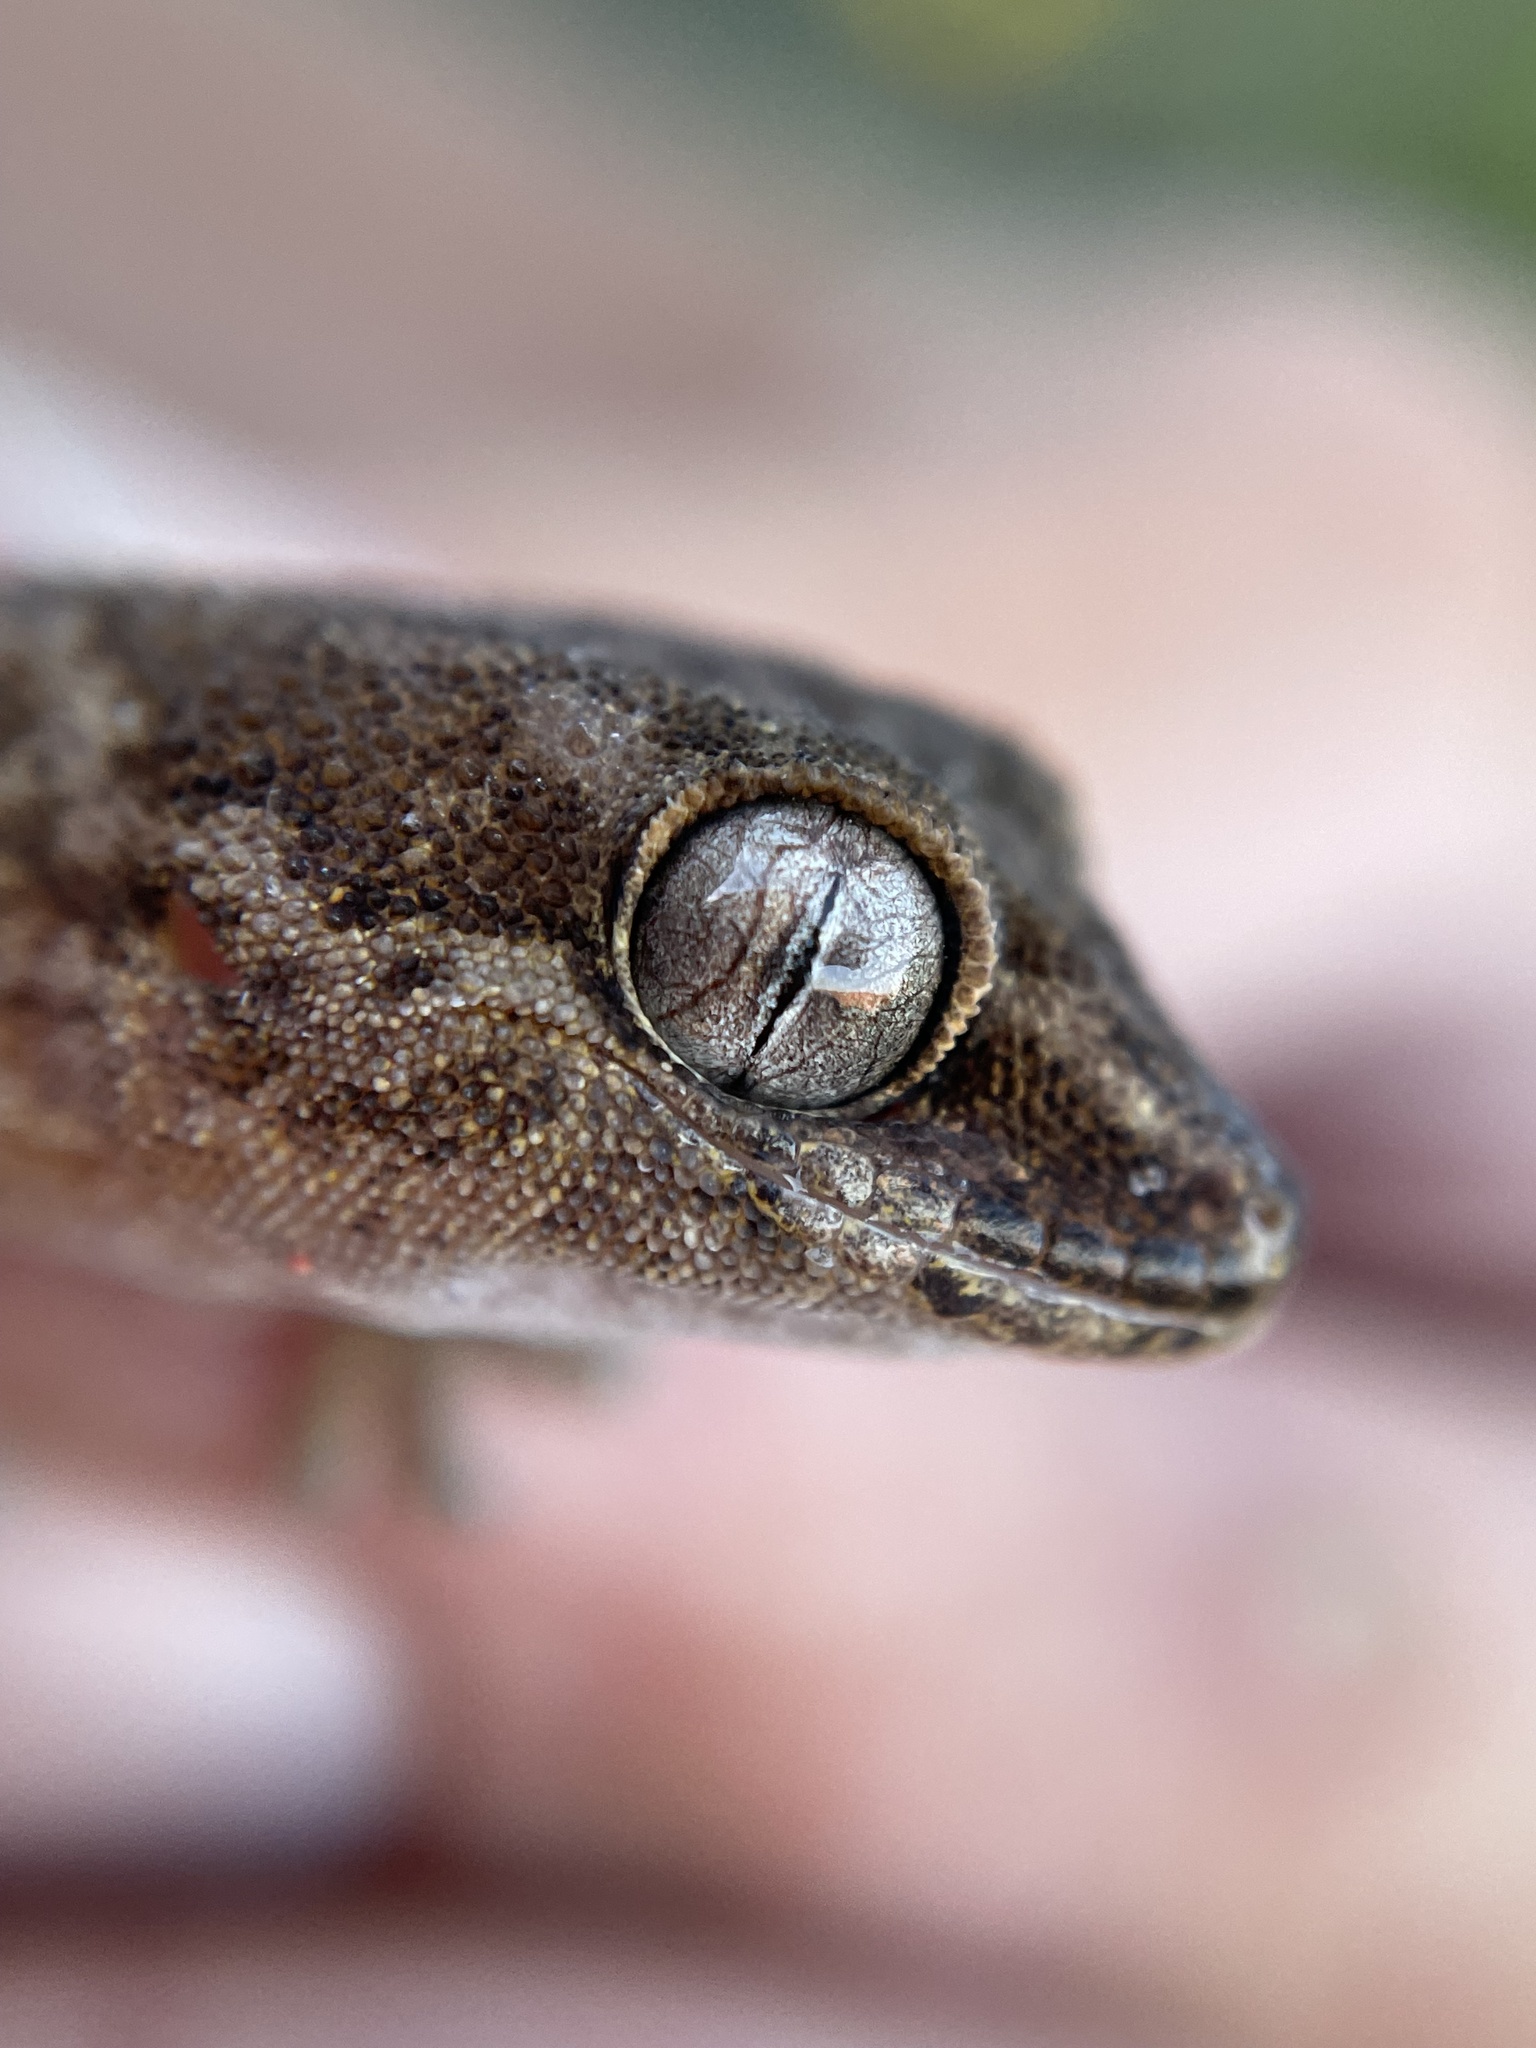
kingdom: Animalia
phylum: Chordata
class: Squamata
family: Gekkonidae
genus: Pachydactylus
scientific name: Pachydactylus formosus
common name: Southern rough gecko
